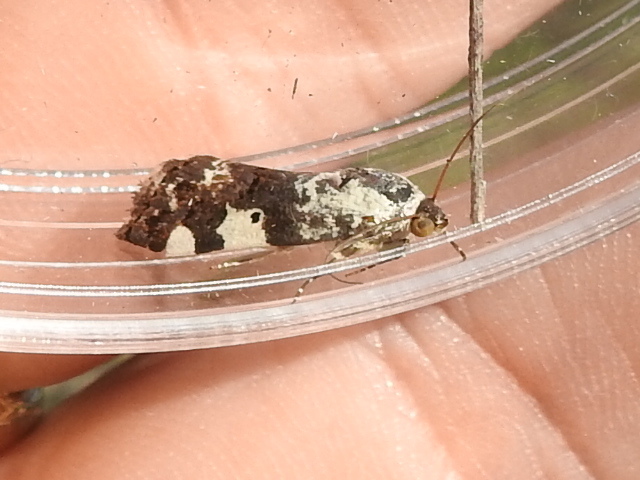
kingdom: Animalia
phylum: Arthropoda
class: Insecta
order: Lepidoptera
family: Noctuidae
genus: Acontia
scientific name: Acontia aprica
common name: Nun
